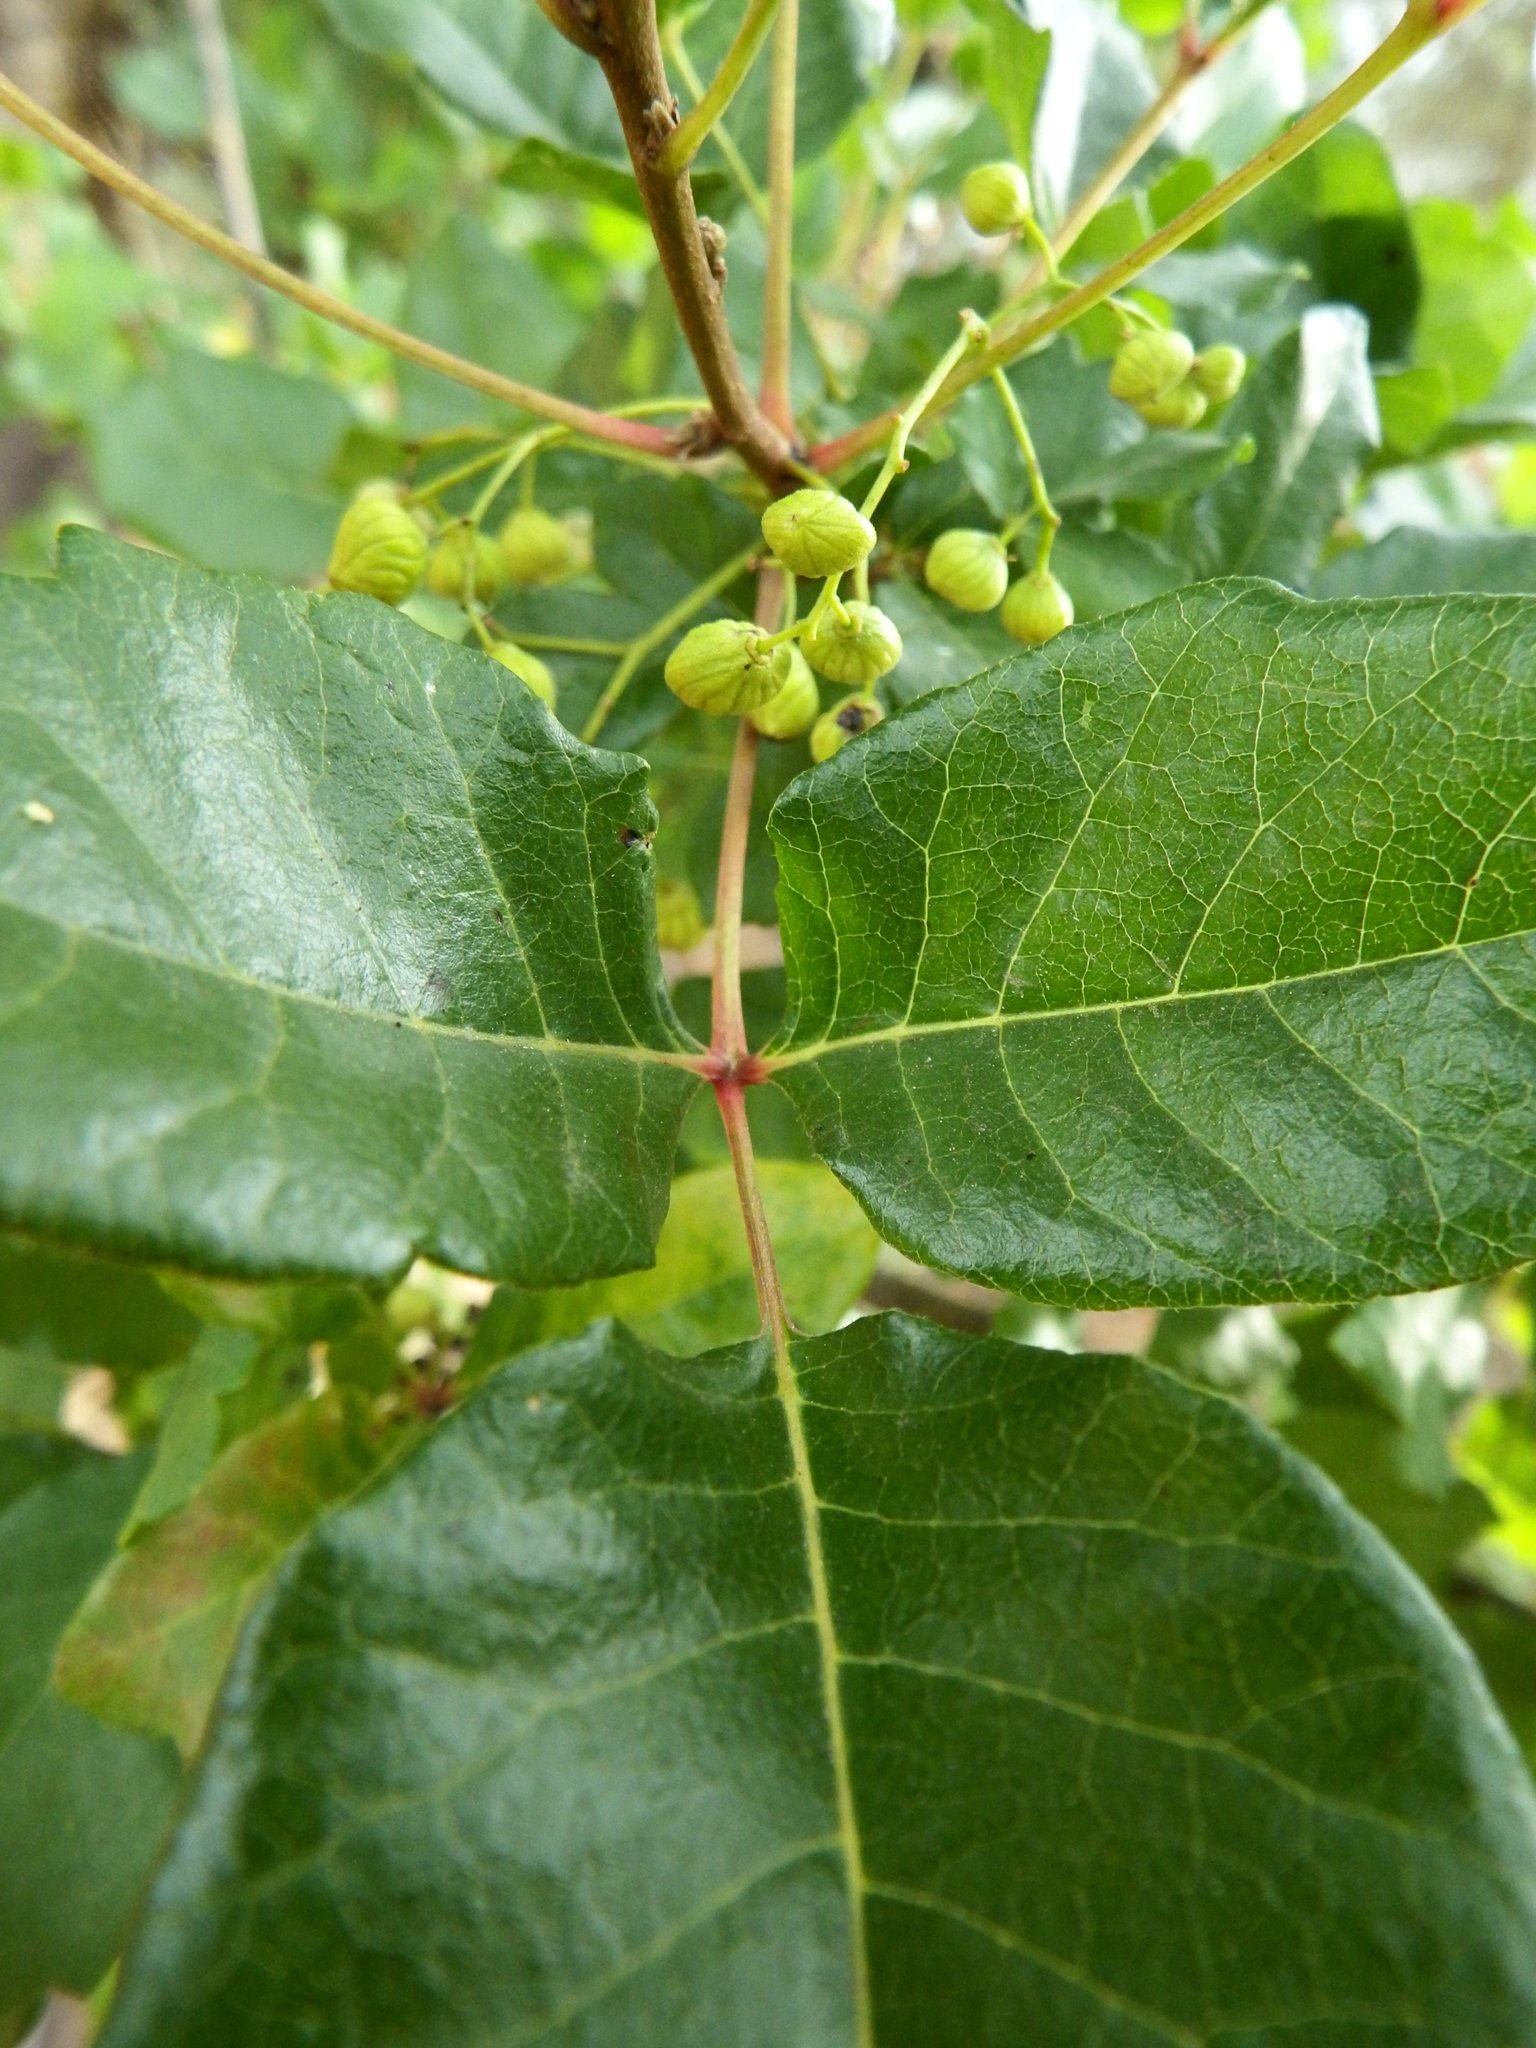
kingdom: Plantae
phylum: Tracheophyta
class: Magnoliopsida
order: Sapindales
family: Anacardiaceae
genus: Toxicodendron
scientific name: Toxicodendron diversilobum
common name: Pacific poison-oak
